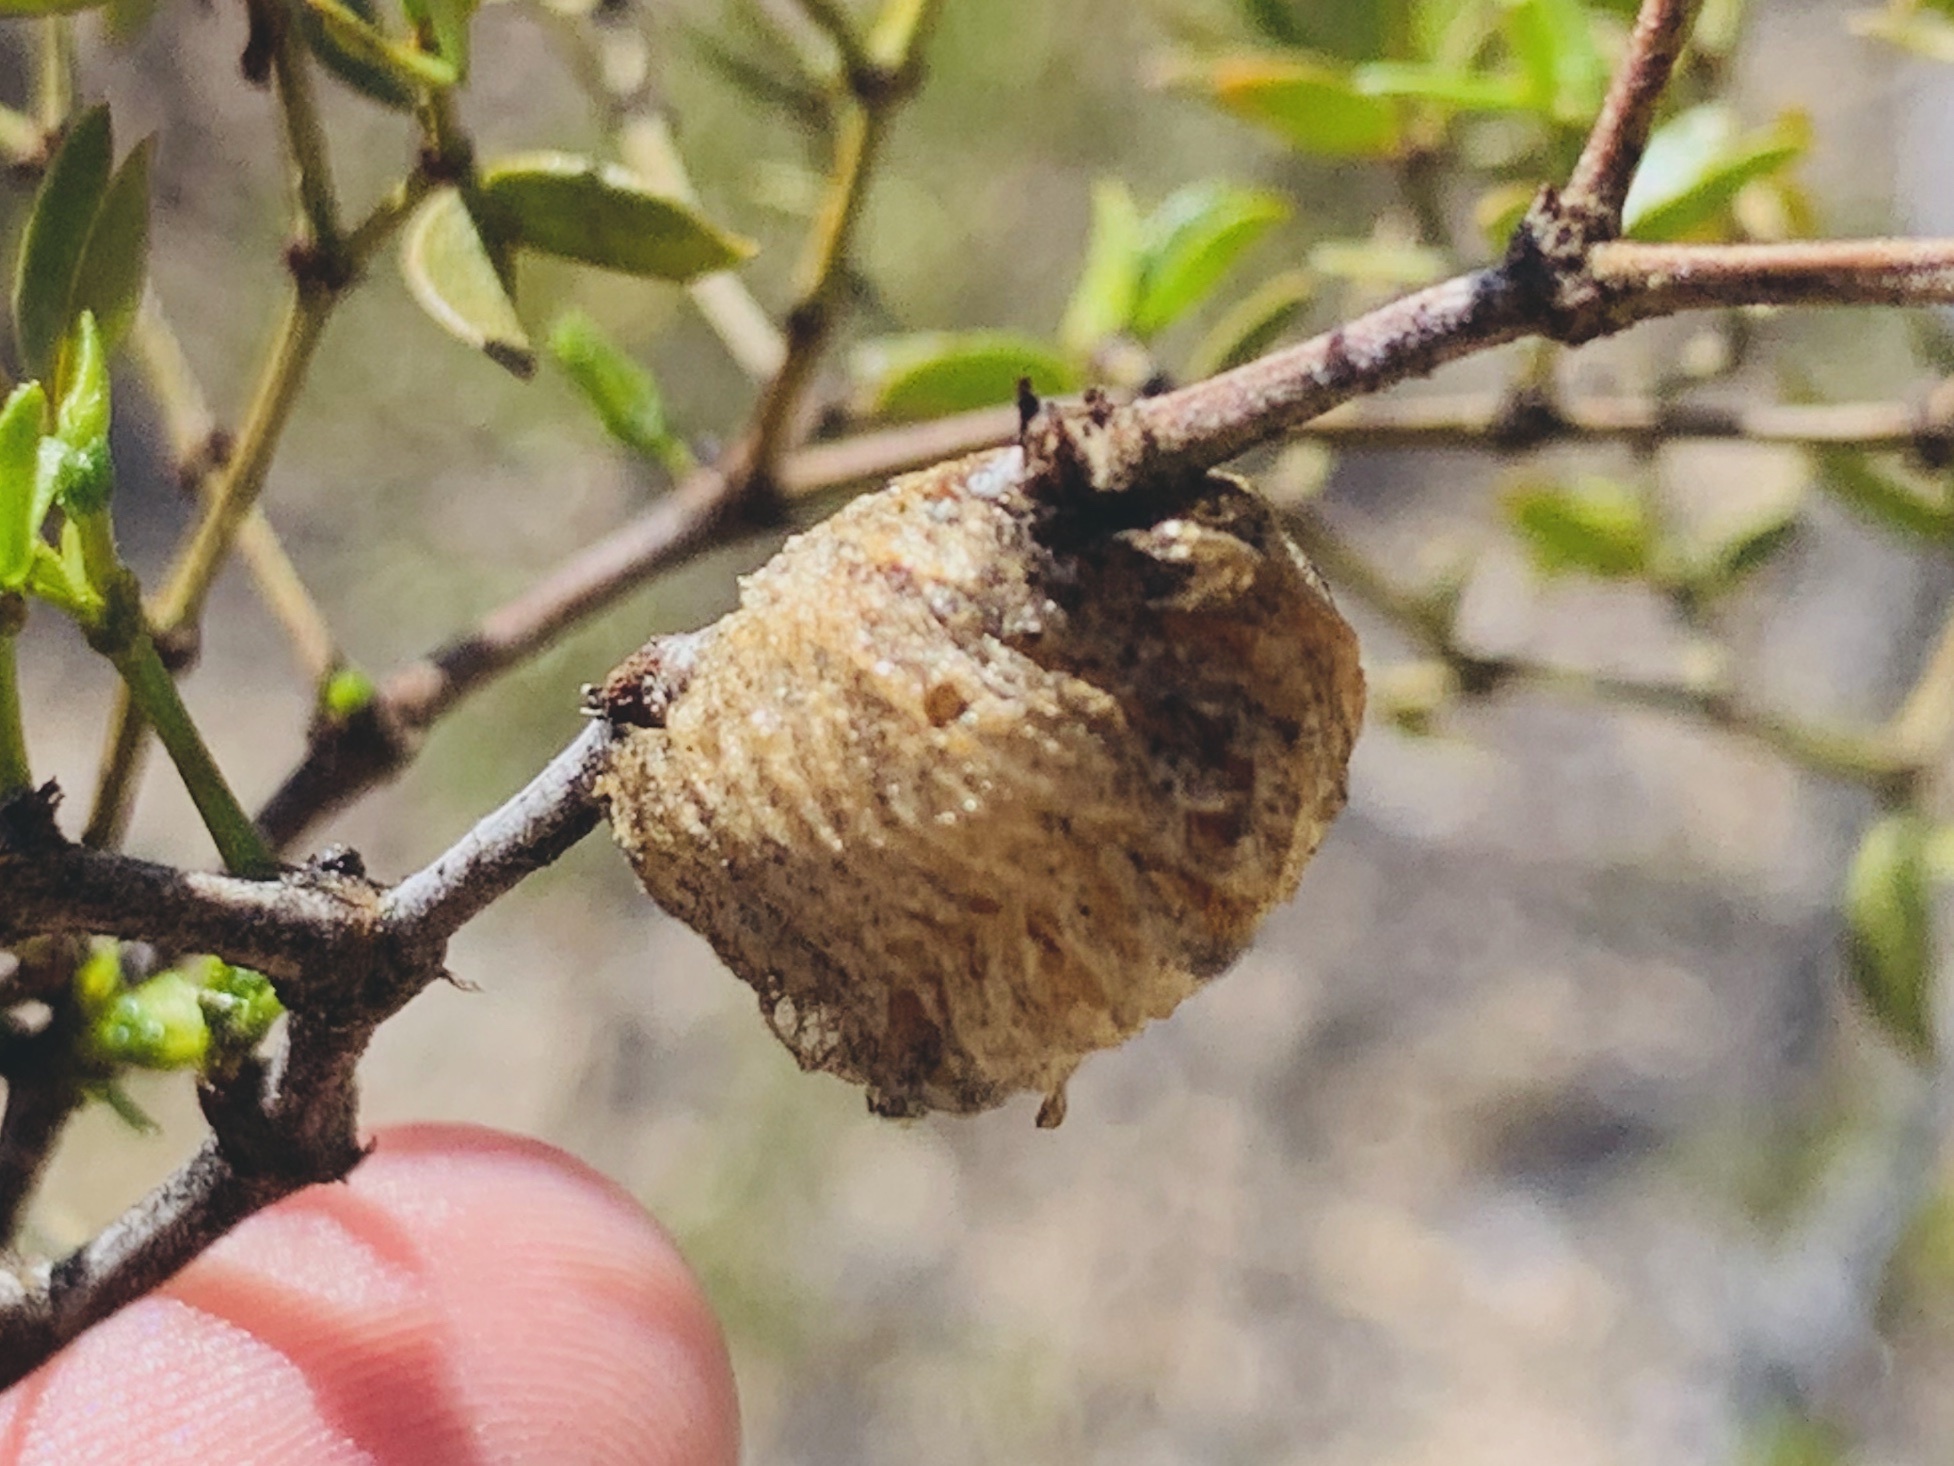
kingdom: Animalia
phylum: Arthropoda
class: Insecta
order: Mantodea
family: Mantidae
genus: Pseudovates
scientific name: Pseudovates arizonae
